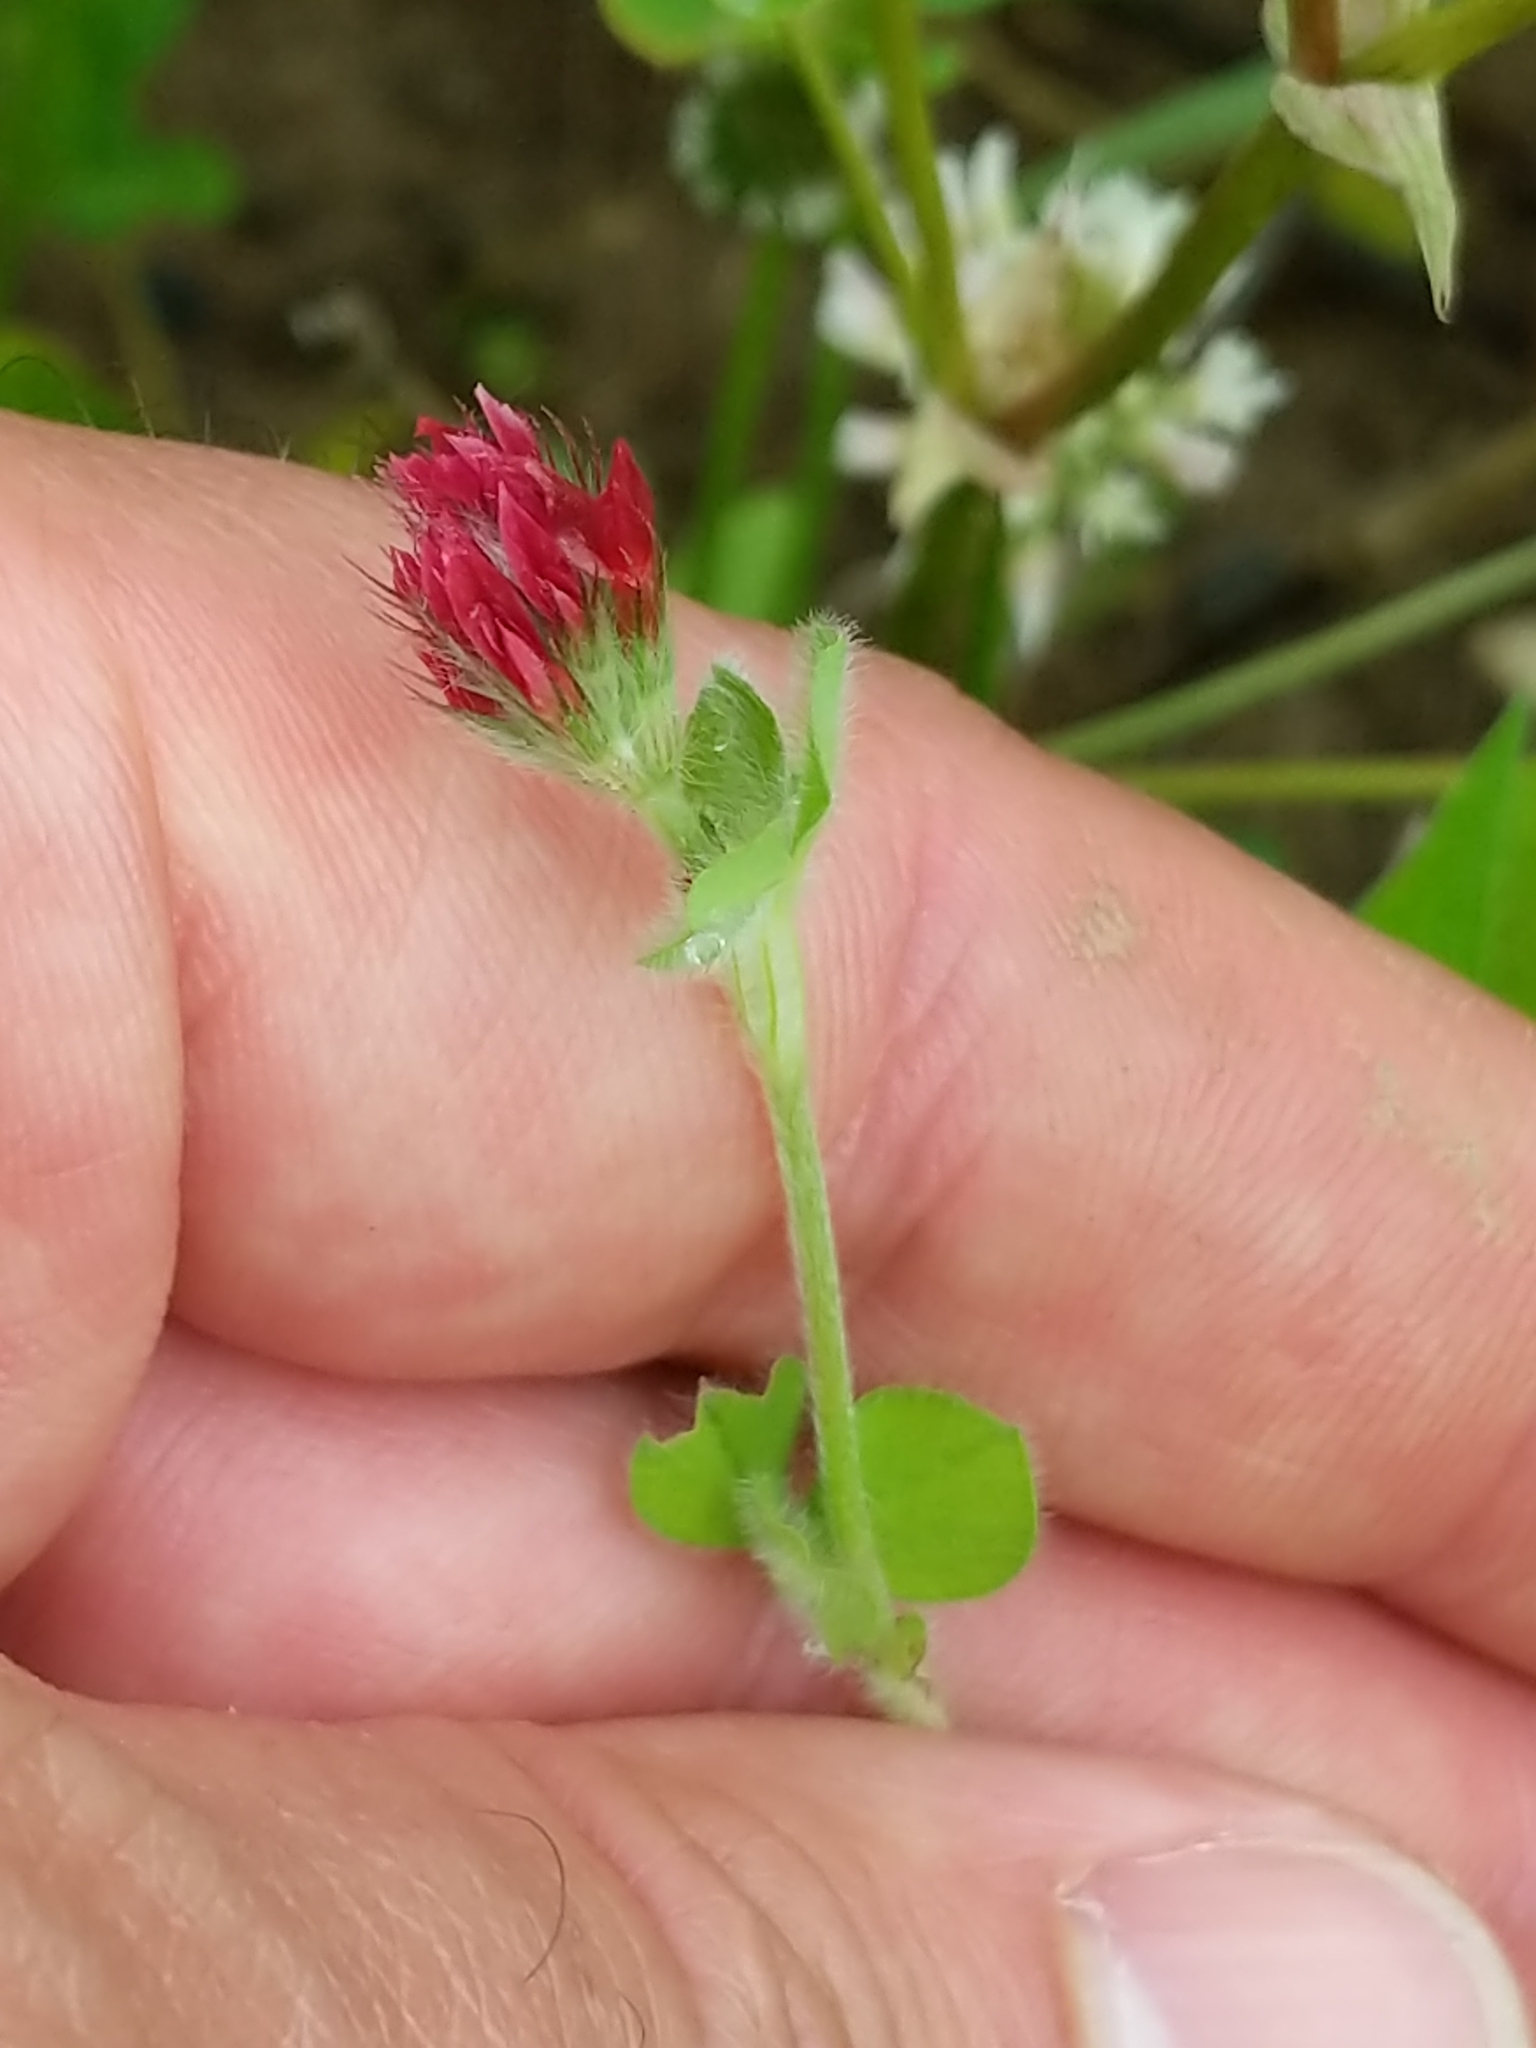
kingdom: Plantae
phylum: Tracheophyta
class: Magnoliopsida
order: Fabales
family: Fabaceae
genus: Trifolium
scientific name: Trifolium incarnatum
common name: Crimson clover
